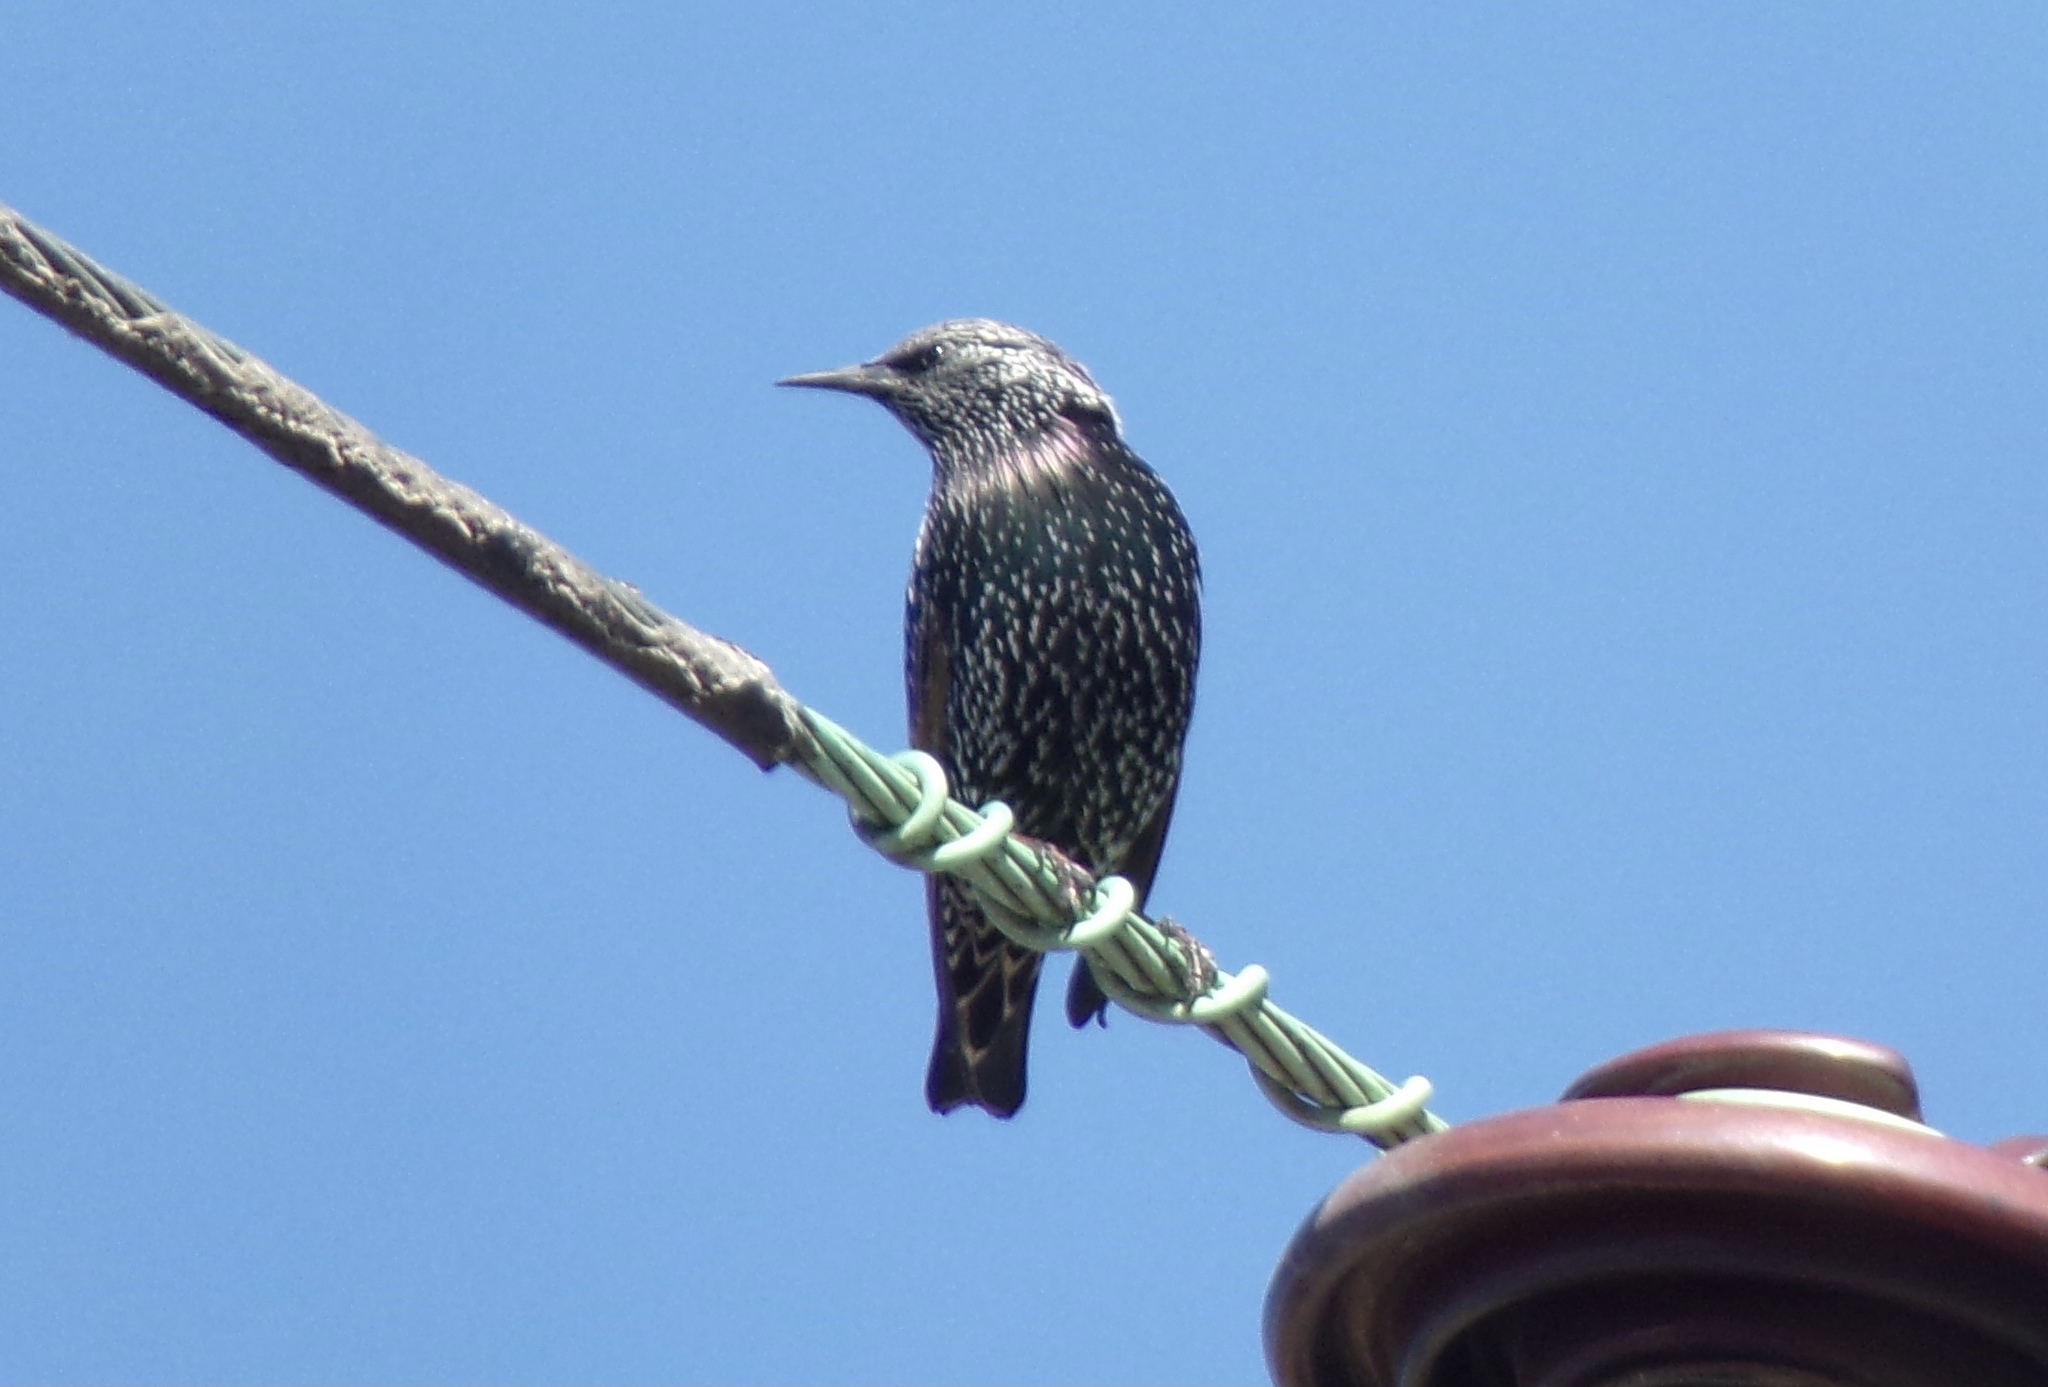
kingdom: Animalia
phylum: Chordata
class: Aves
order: Passeriformes
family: Sturnidae
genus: Sturnus
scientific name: Sturnus vulgaris
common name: Common starling
